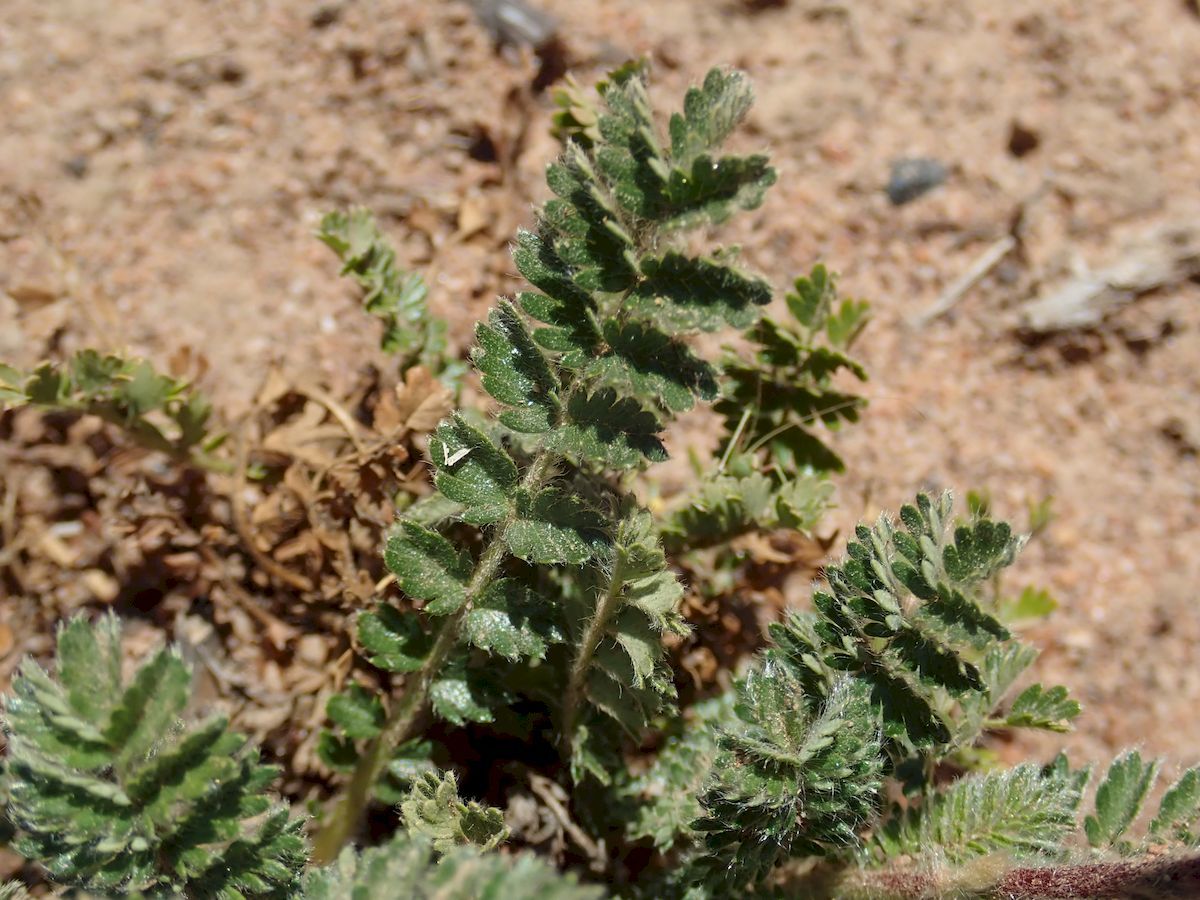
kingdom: Plantae
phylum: Tracheophyta
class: Magnoliopsida
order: Rosales
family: Rosaceae
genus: Acaena
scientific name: Acaena ovina
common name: Hairy sheepbur
